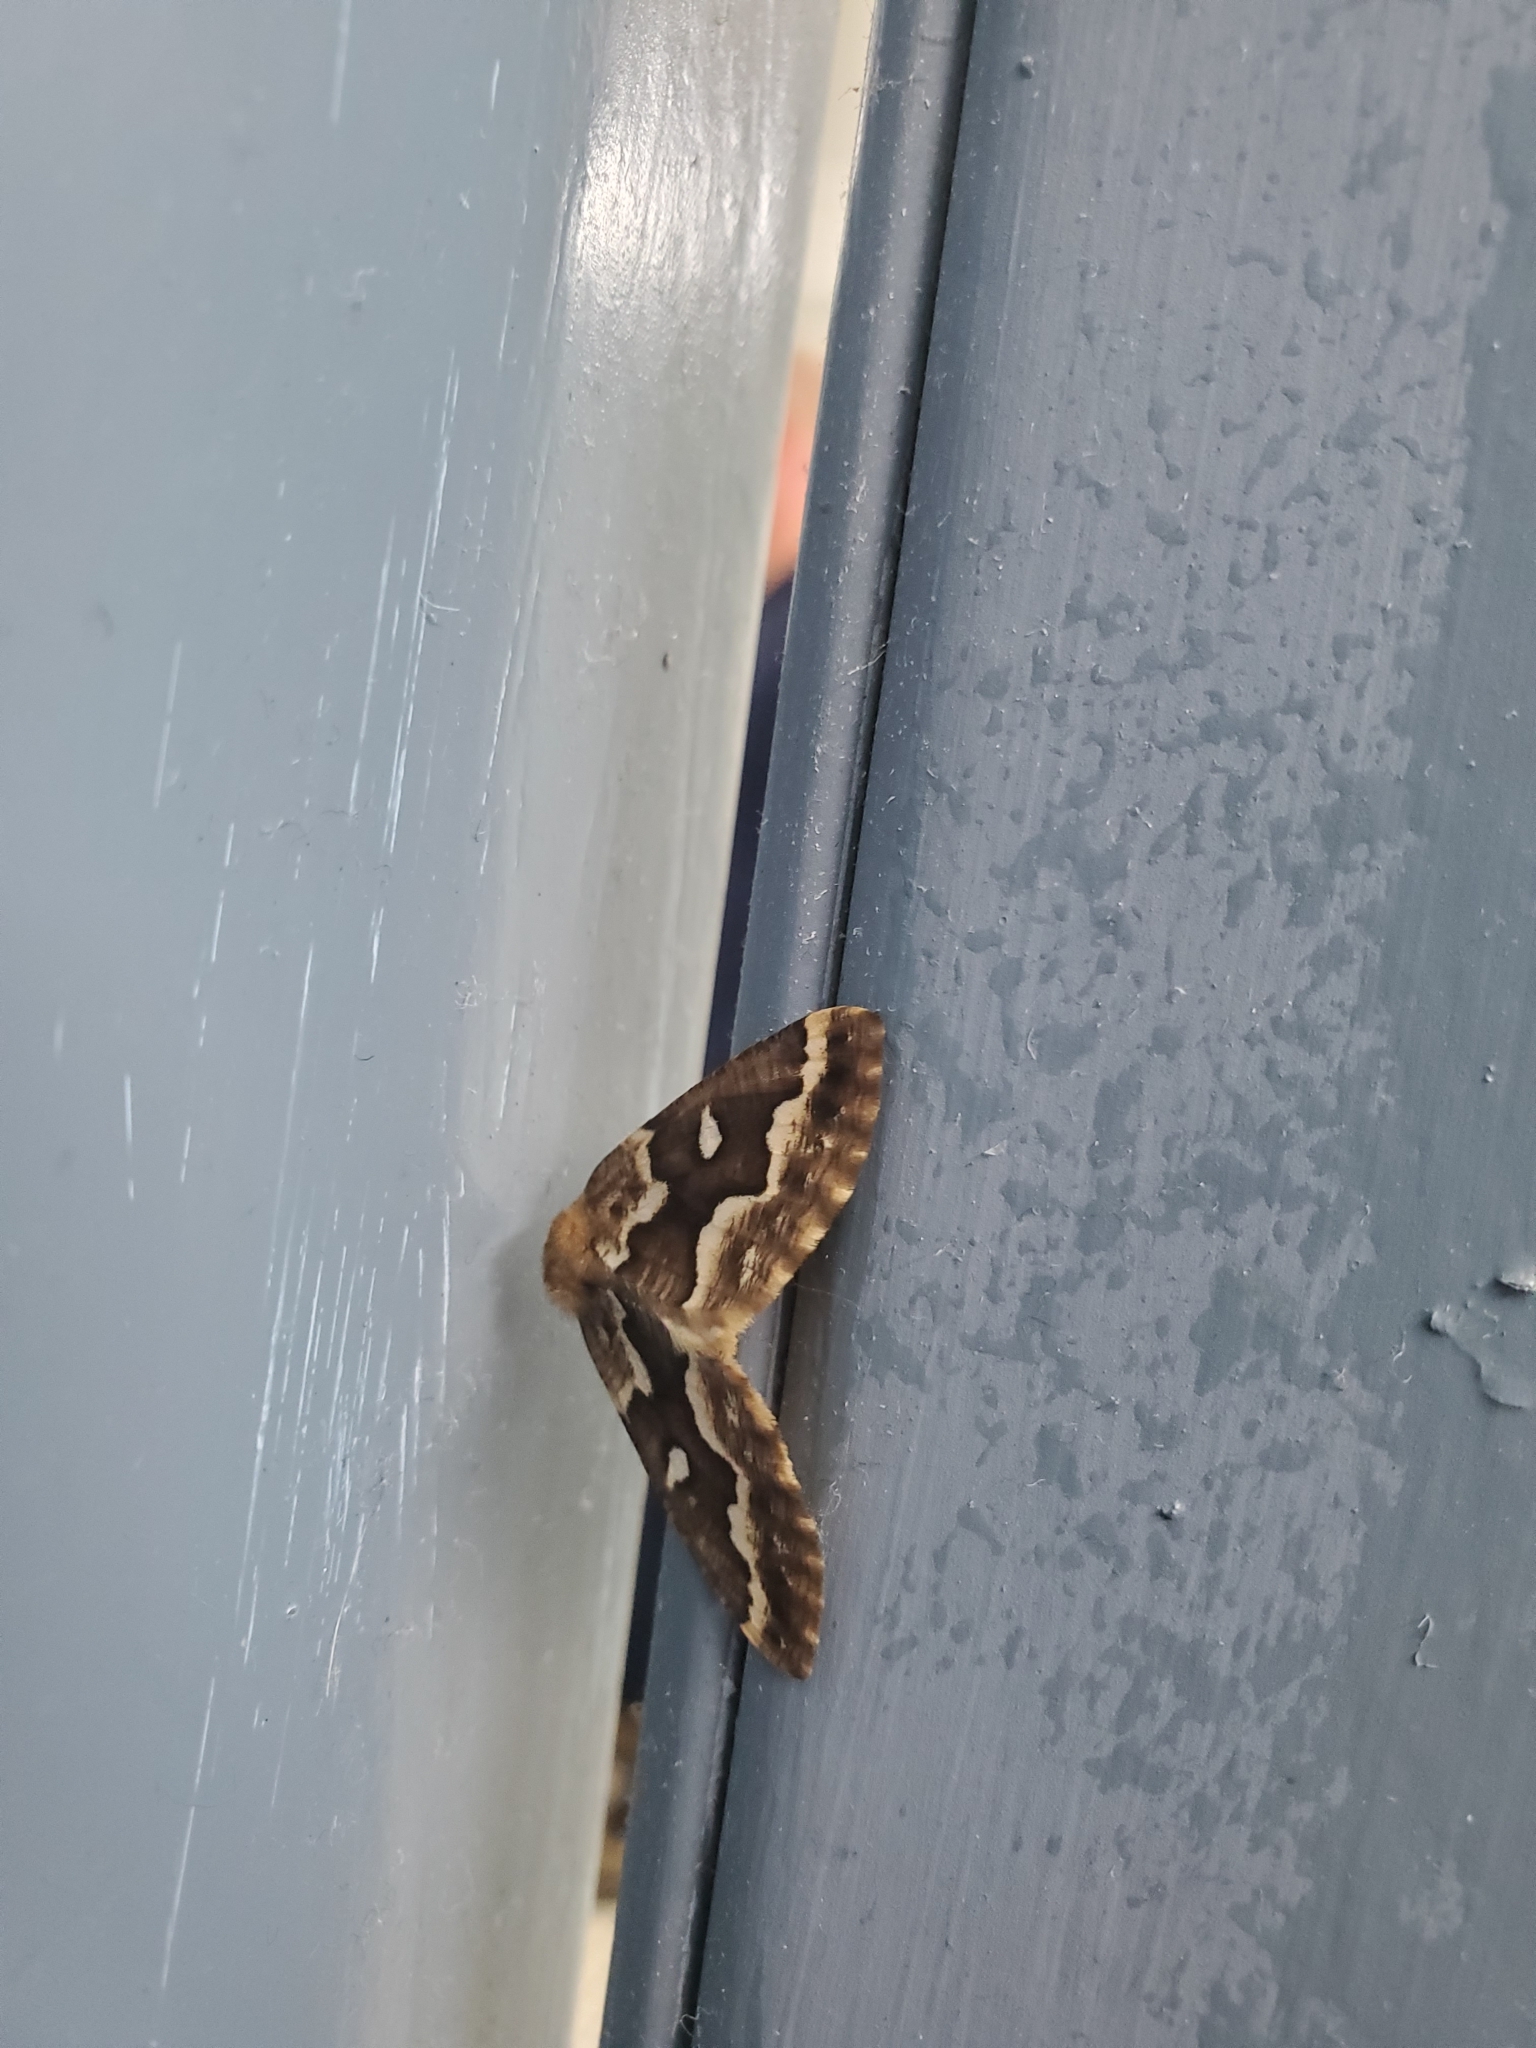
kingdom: Animalia
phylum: Arthropoda
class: Insecta
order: Lepidoptera
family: Geometridae
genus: Caripeta
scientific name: Caripeta divisata
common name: Gray spruce looper
